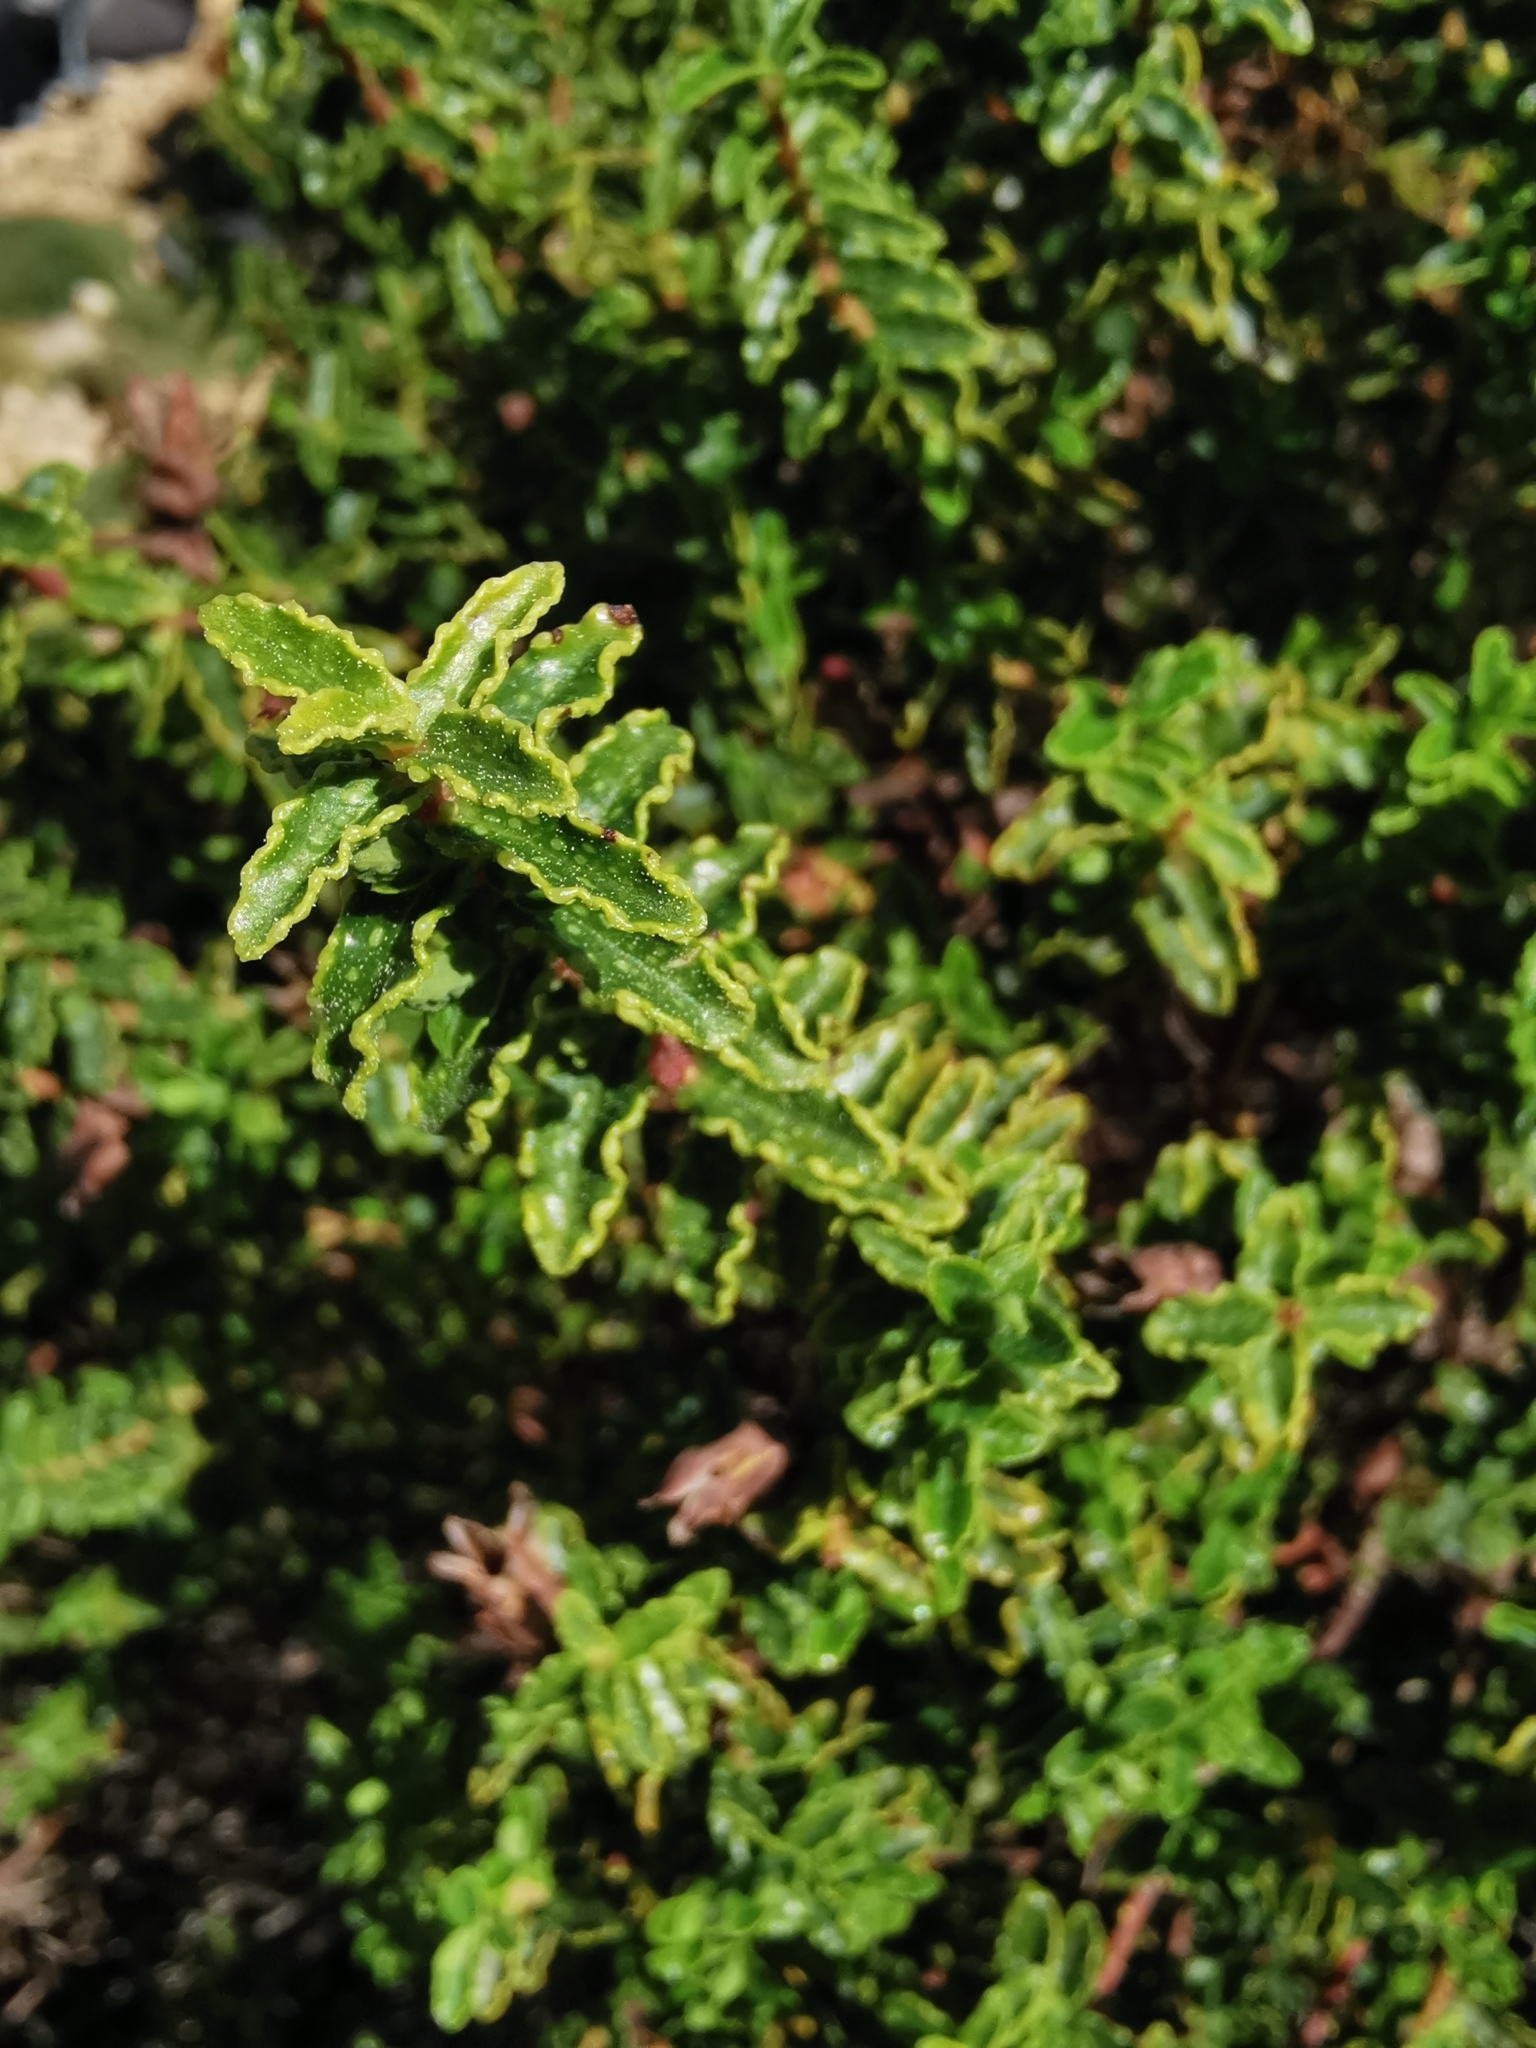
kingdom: Plantae
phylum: Tracheophyta
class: Magnoliopsida
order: Malpighiales
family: Hypericaceae
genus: Hypericum
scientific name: Hypericum balearicum
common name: Majorca st john's wort
